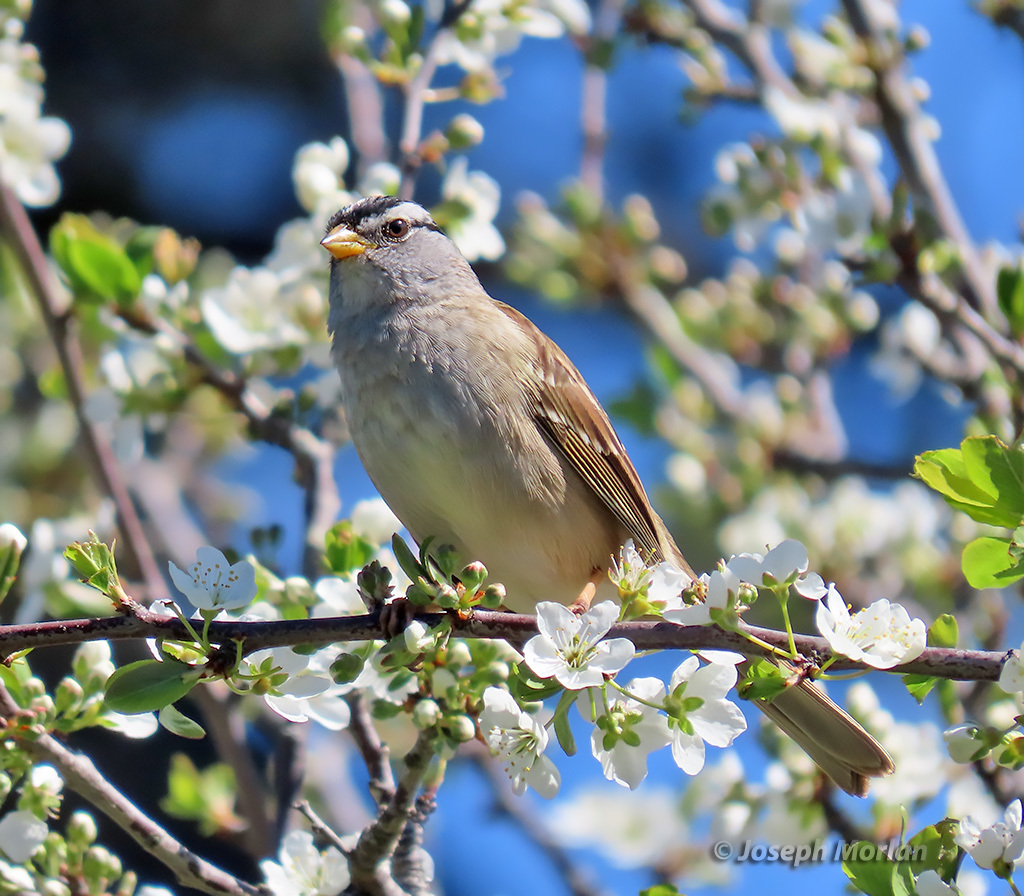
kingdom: Animalia
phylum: Chordata
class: Aves
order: Passeriformes
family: Passerellidae
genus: Zonotrichia
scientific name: Zonotrichia leucophrys
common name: White-crowned sparrow
